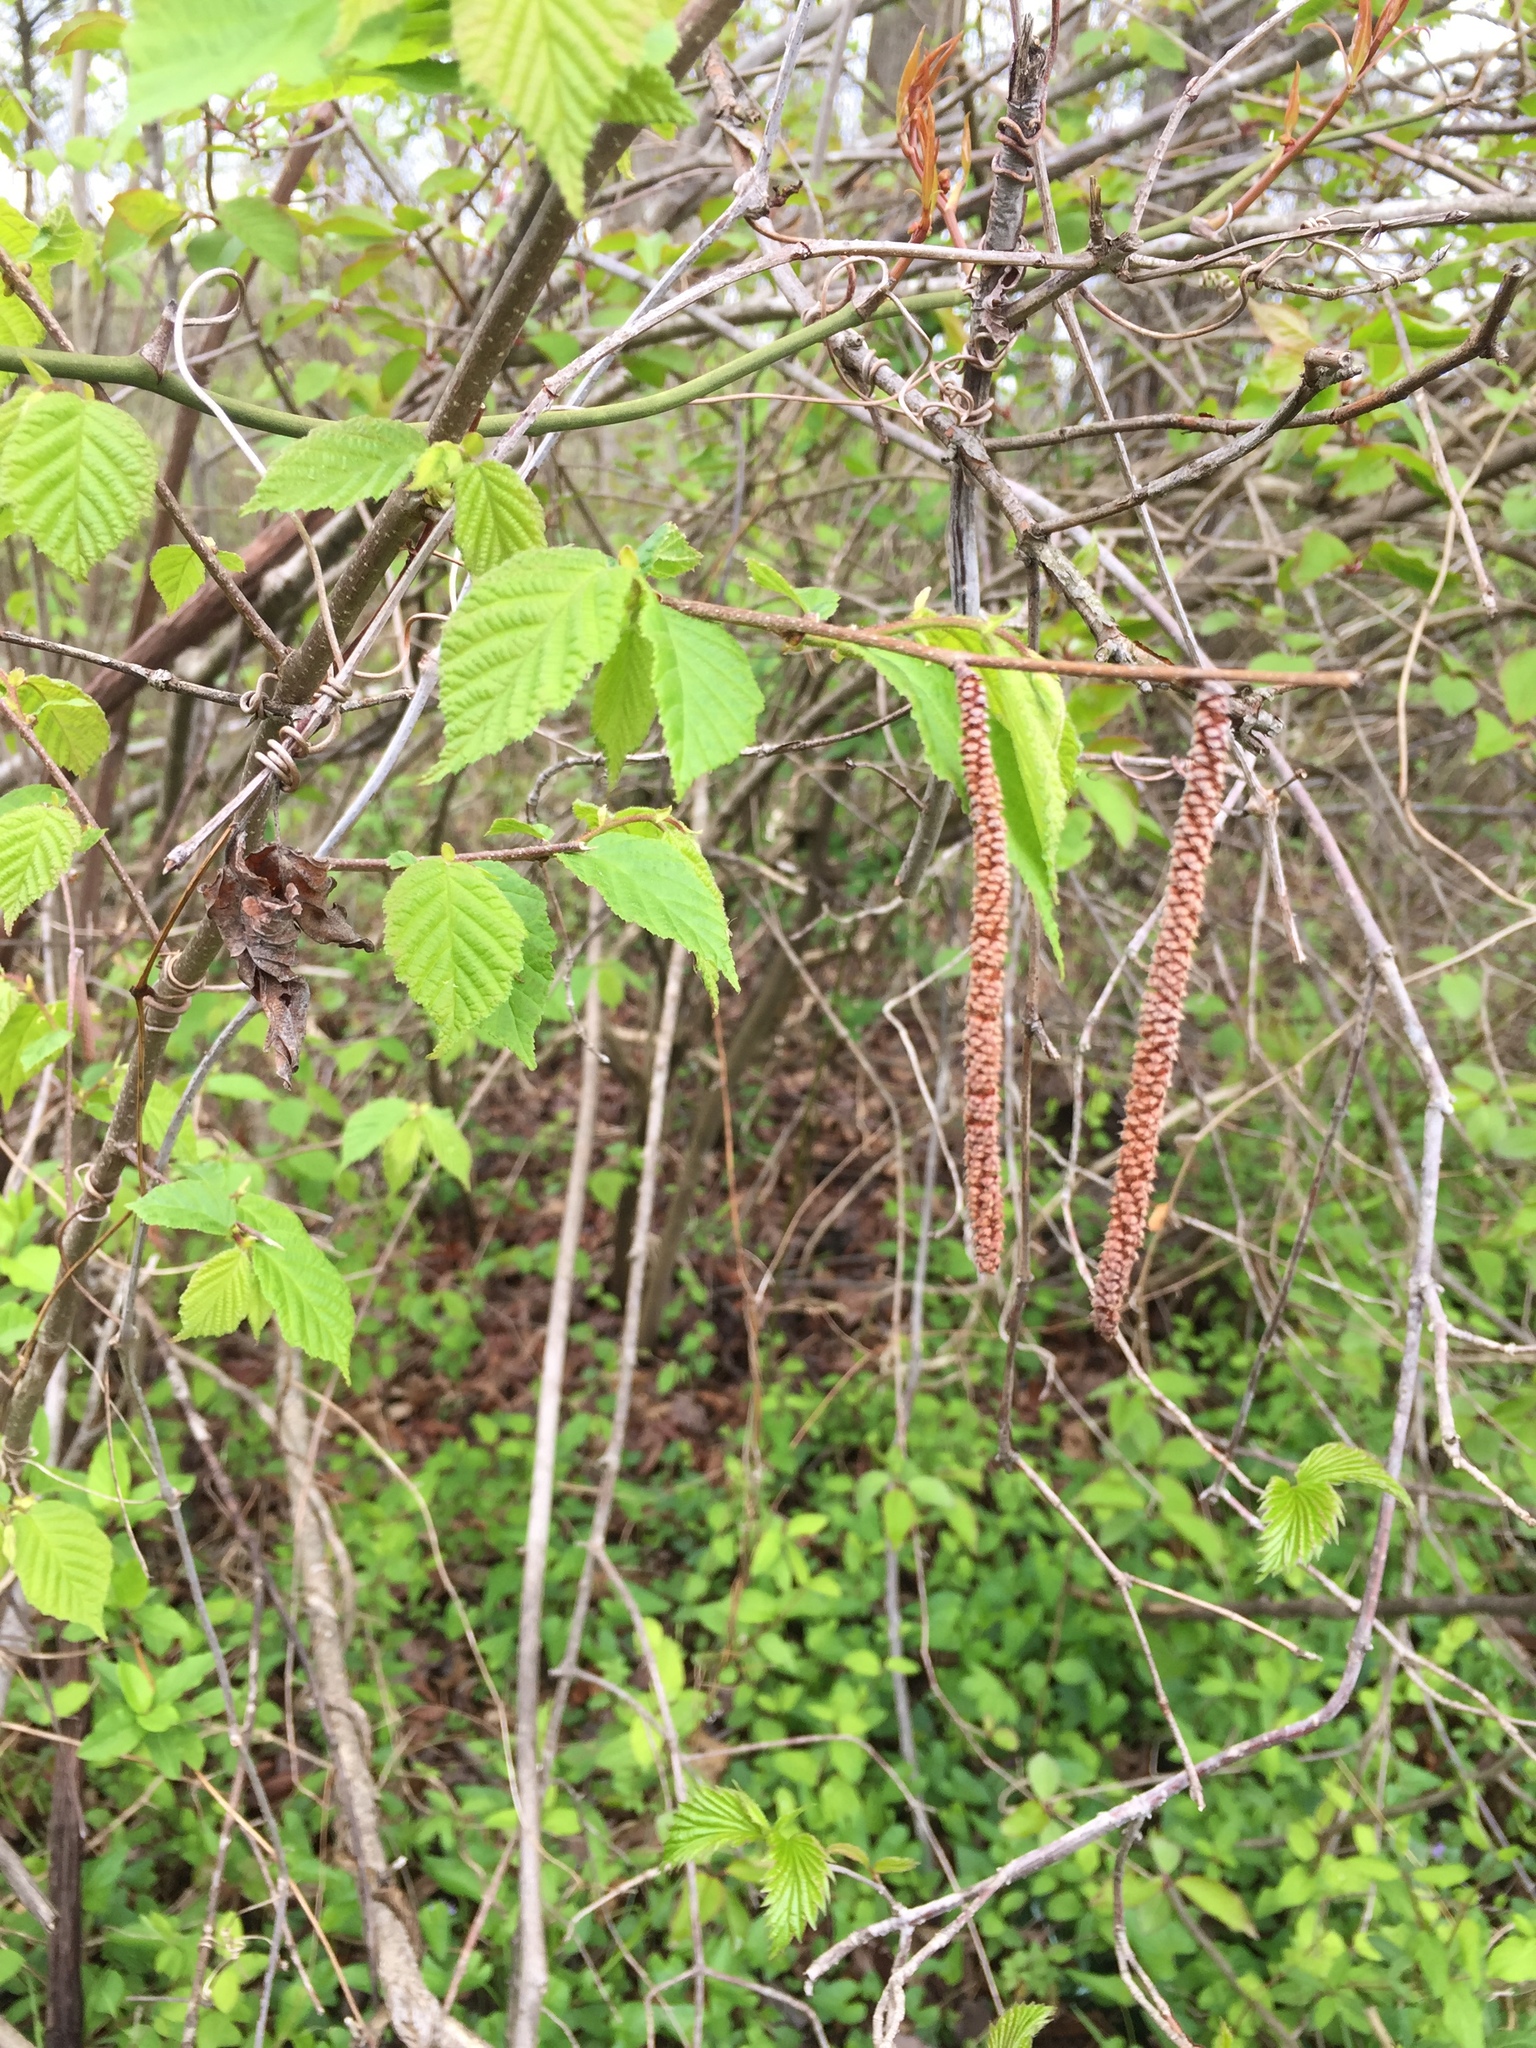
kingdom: Plantae
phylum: Tracheophyta
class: Magnoliopsida
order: Fagales
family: Betulaceae
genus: Alnus
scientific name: Alnus serrulata
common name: Hazel alder
